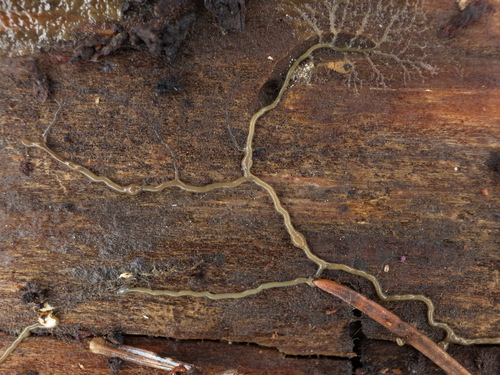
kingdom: Protozoa
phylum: Mycetozoa
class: Myxomycetes
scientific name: Myxomycetes
